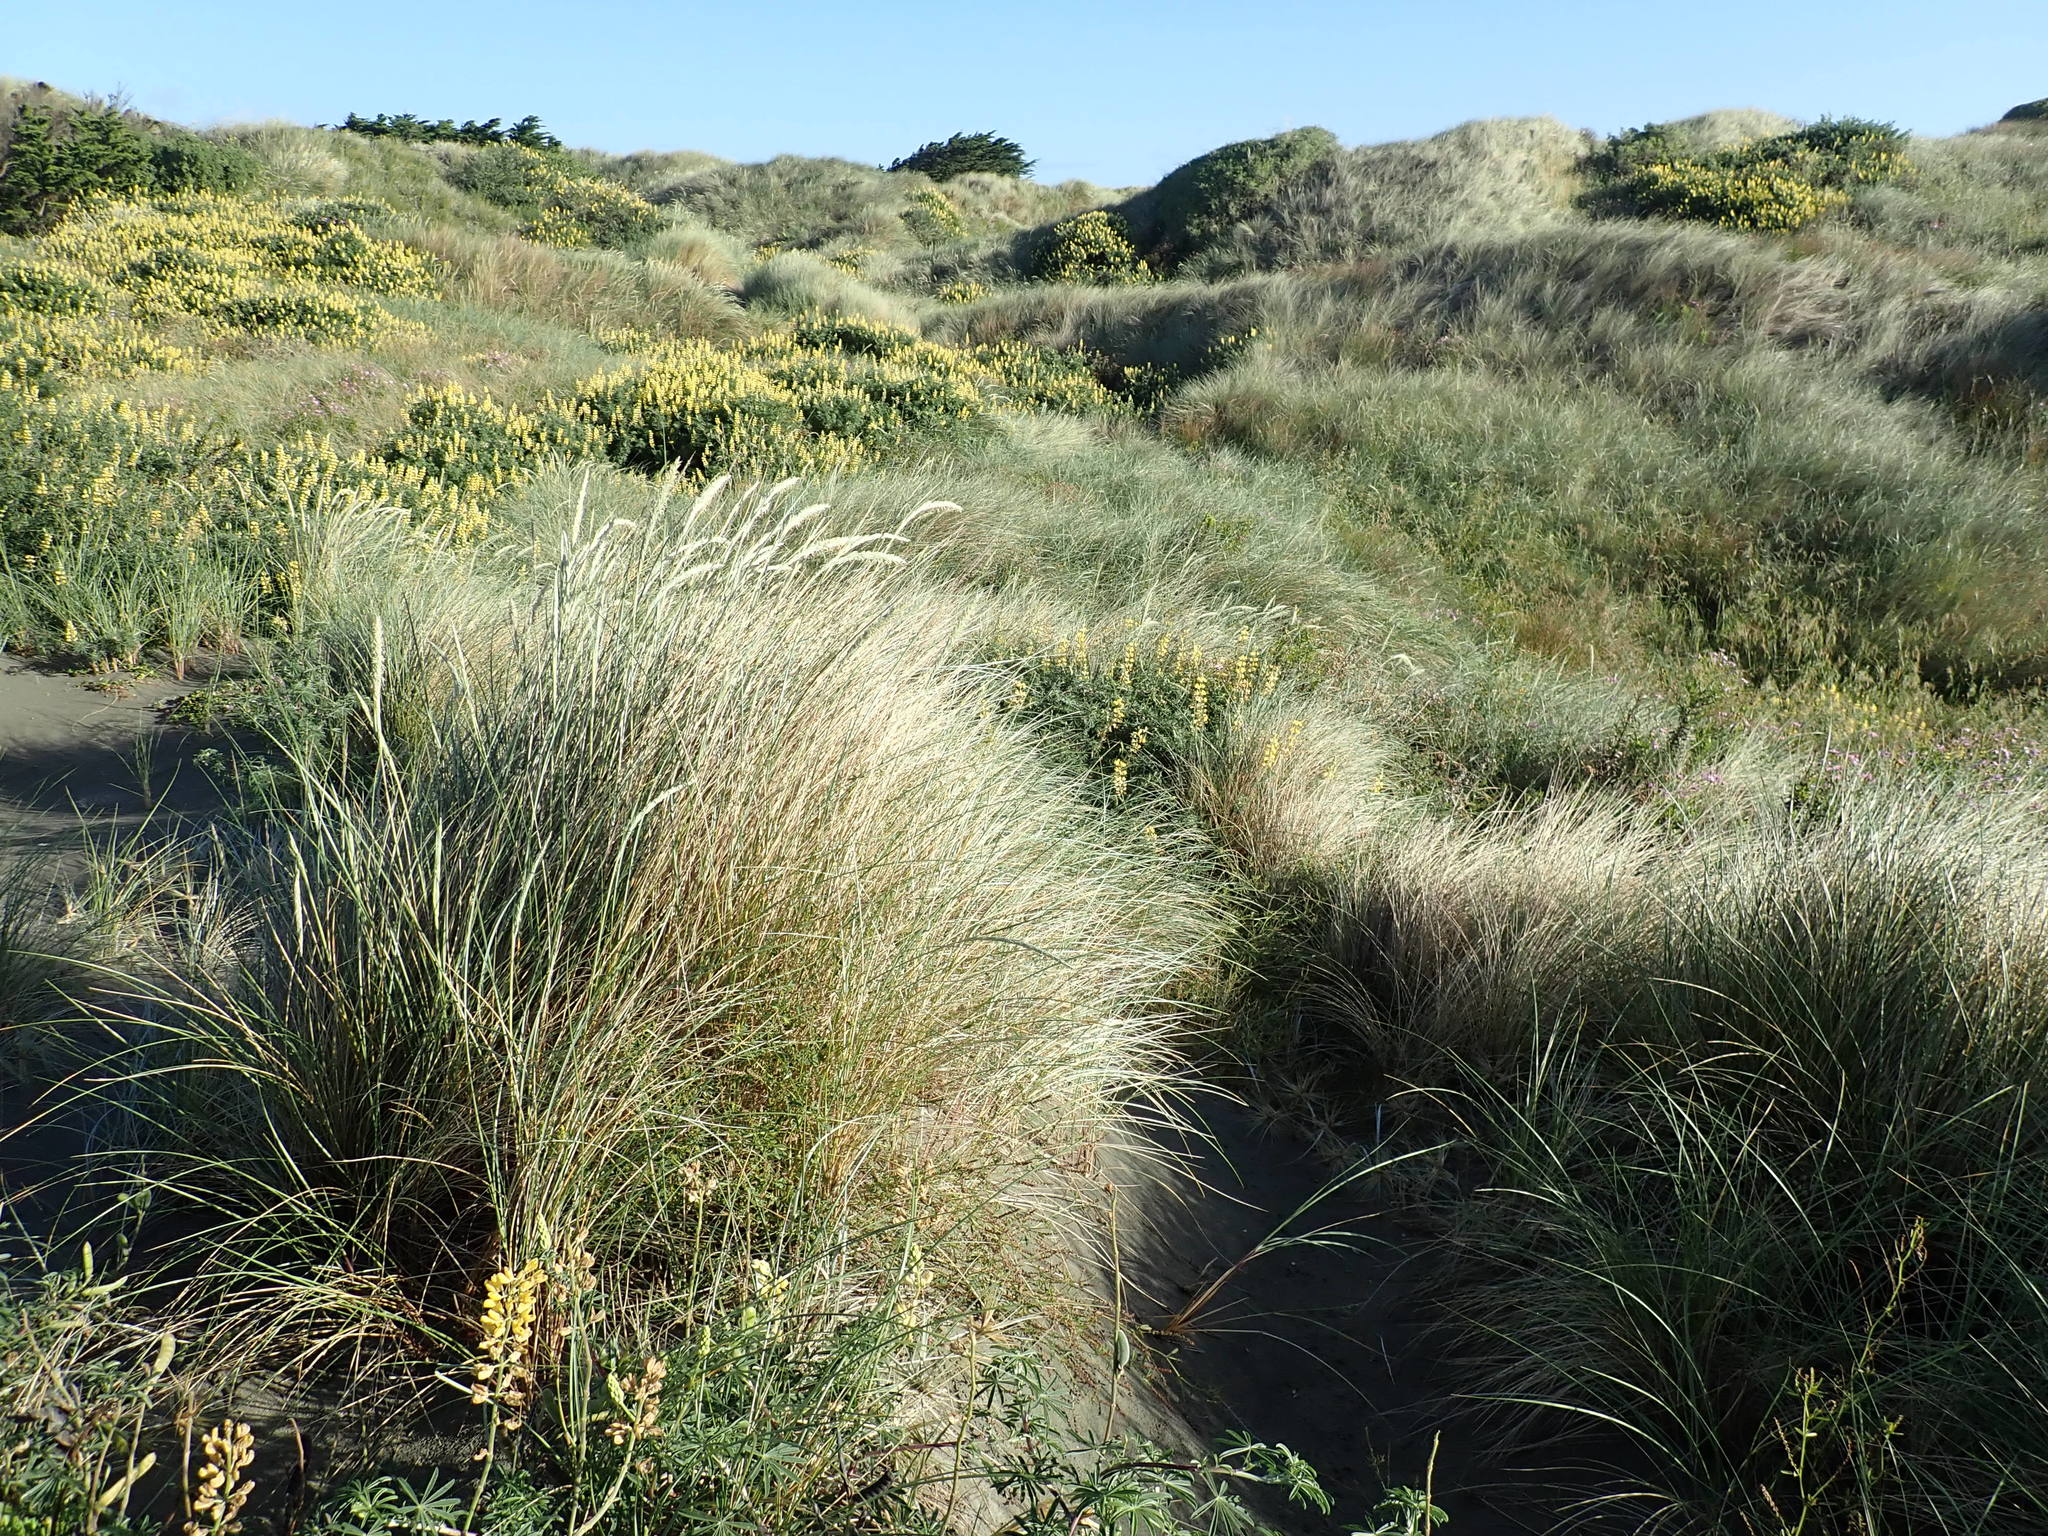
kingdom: Plantae
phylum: Tracheophyta
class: Liliopsida
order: Poales
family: Poaceae
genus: Calamagrostis
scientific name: Calamagrostis arenaria
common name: European beachgrass
